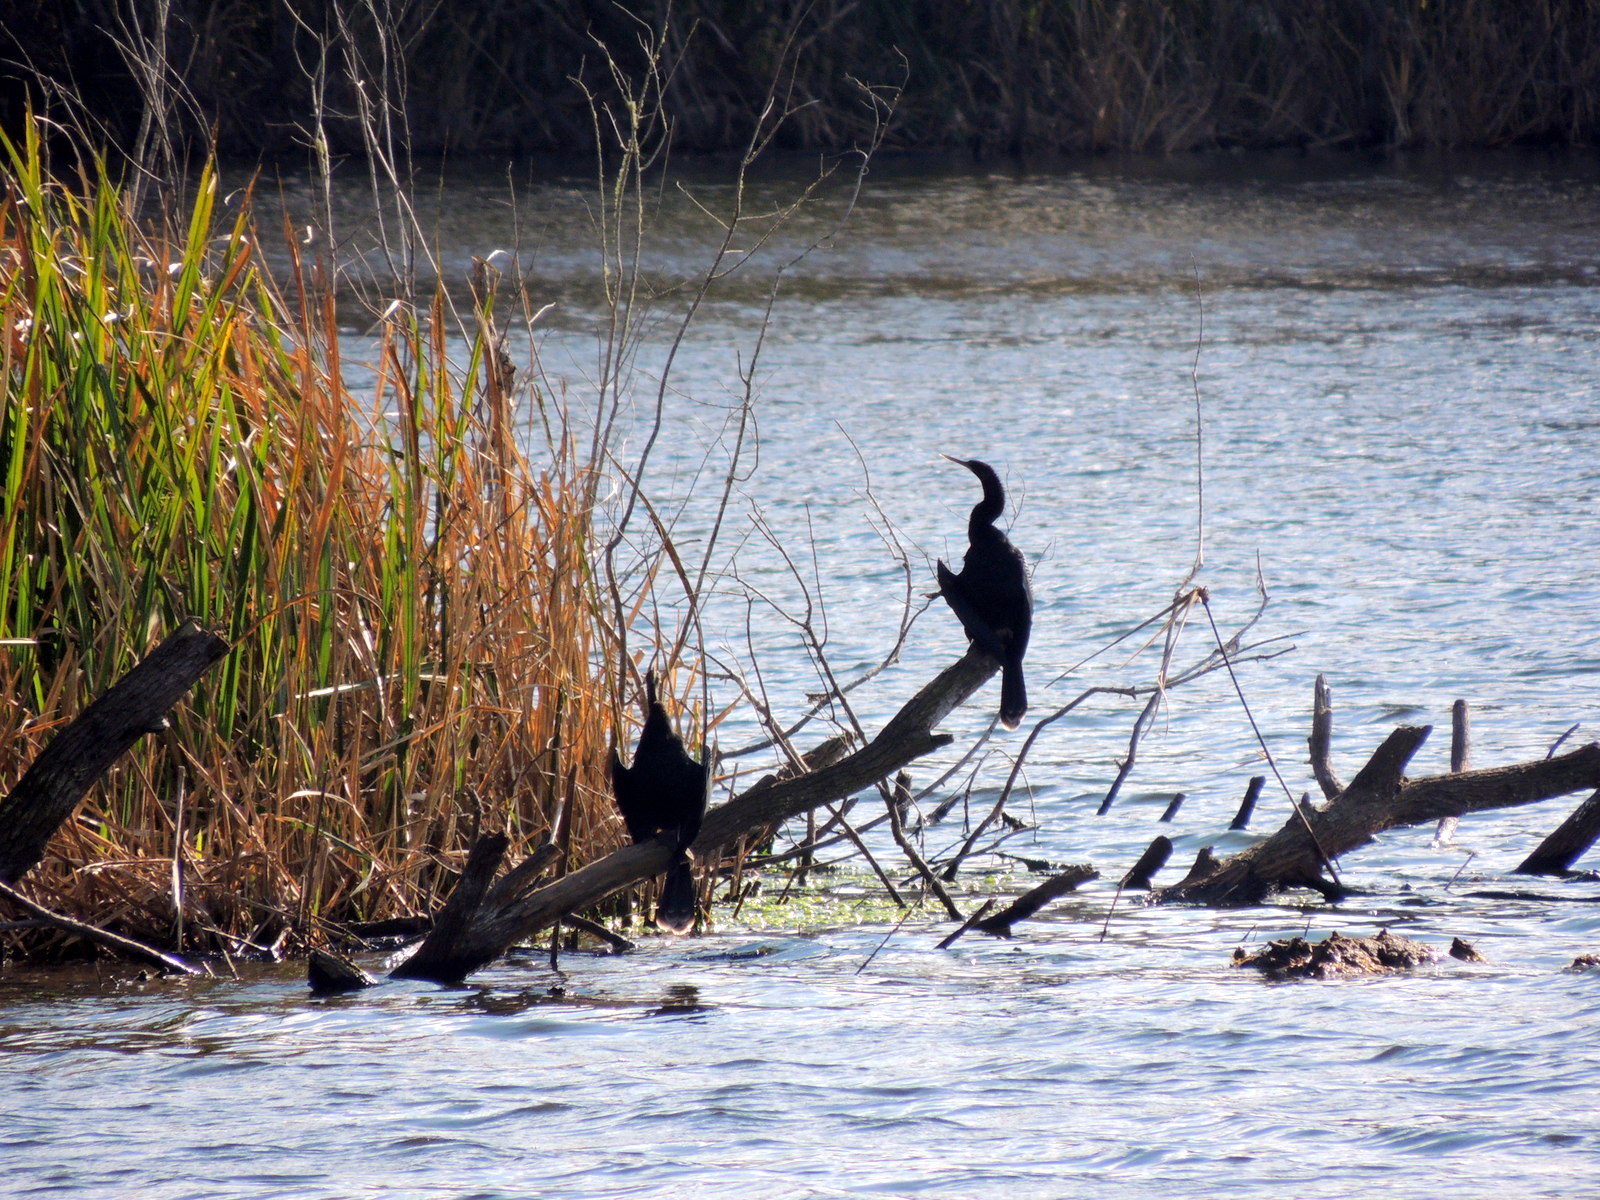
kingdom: Animalia
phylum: Chordata
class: Aves
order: Suliformes
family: Anhingidae
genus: Anhinga
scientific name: Anhinga anhinga
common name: Anhinga
